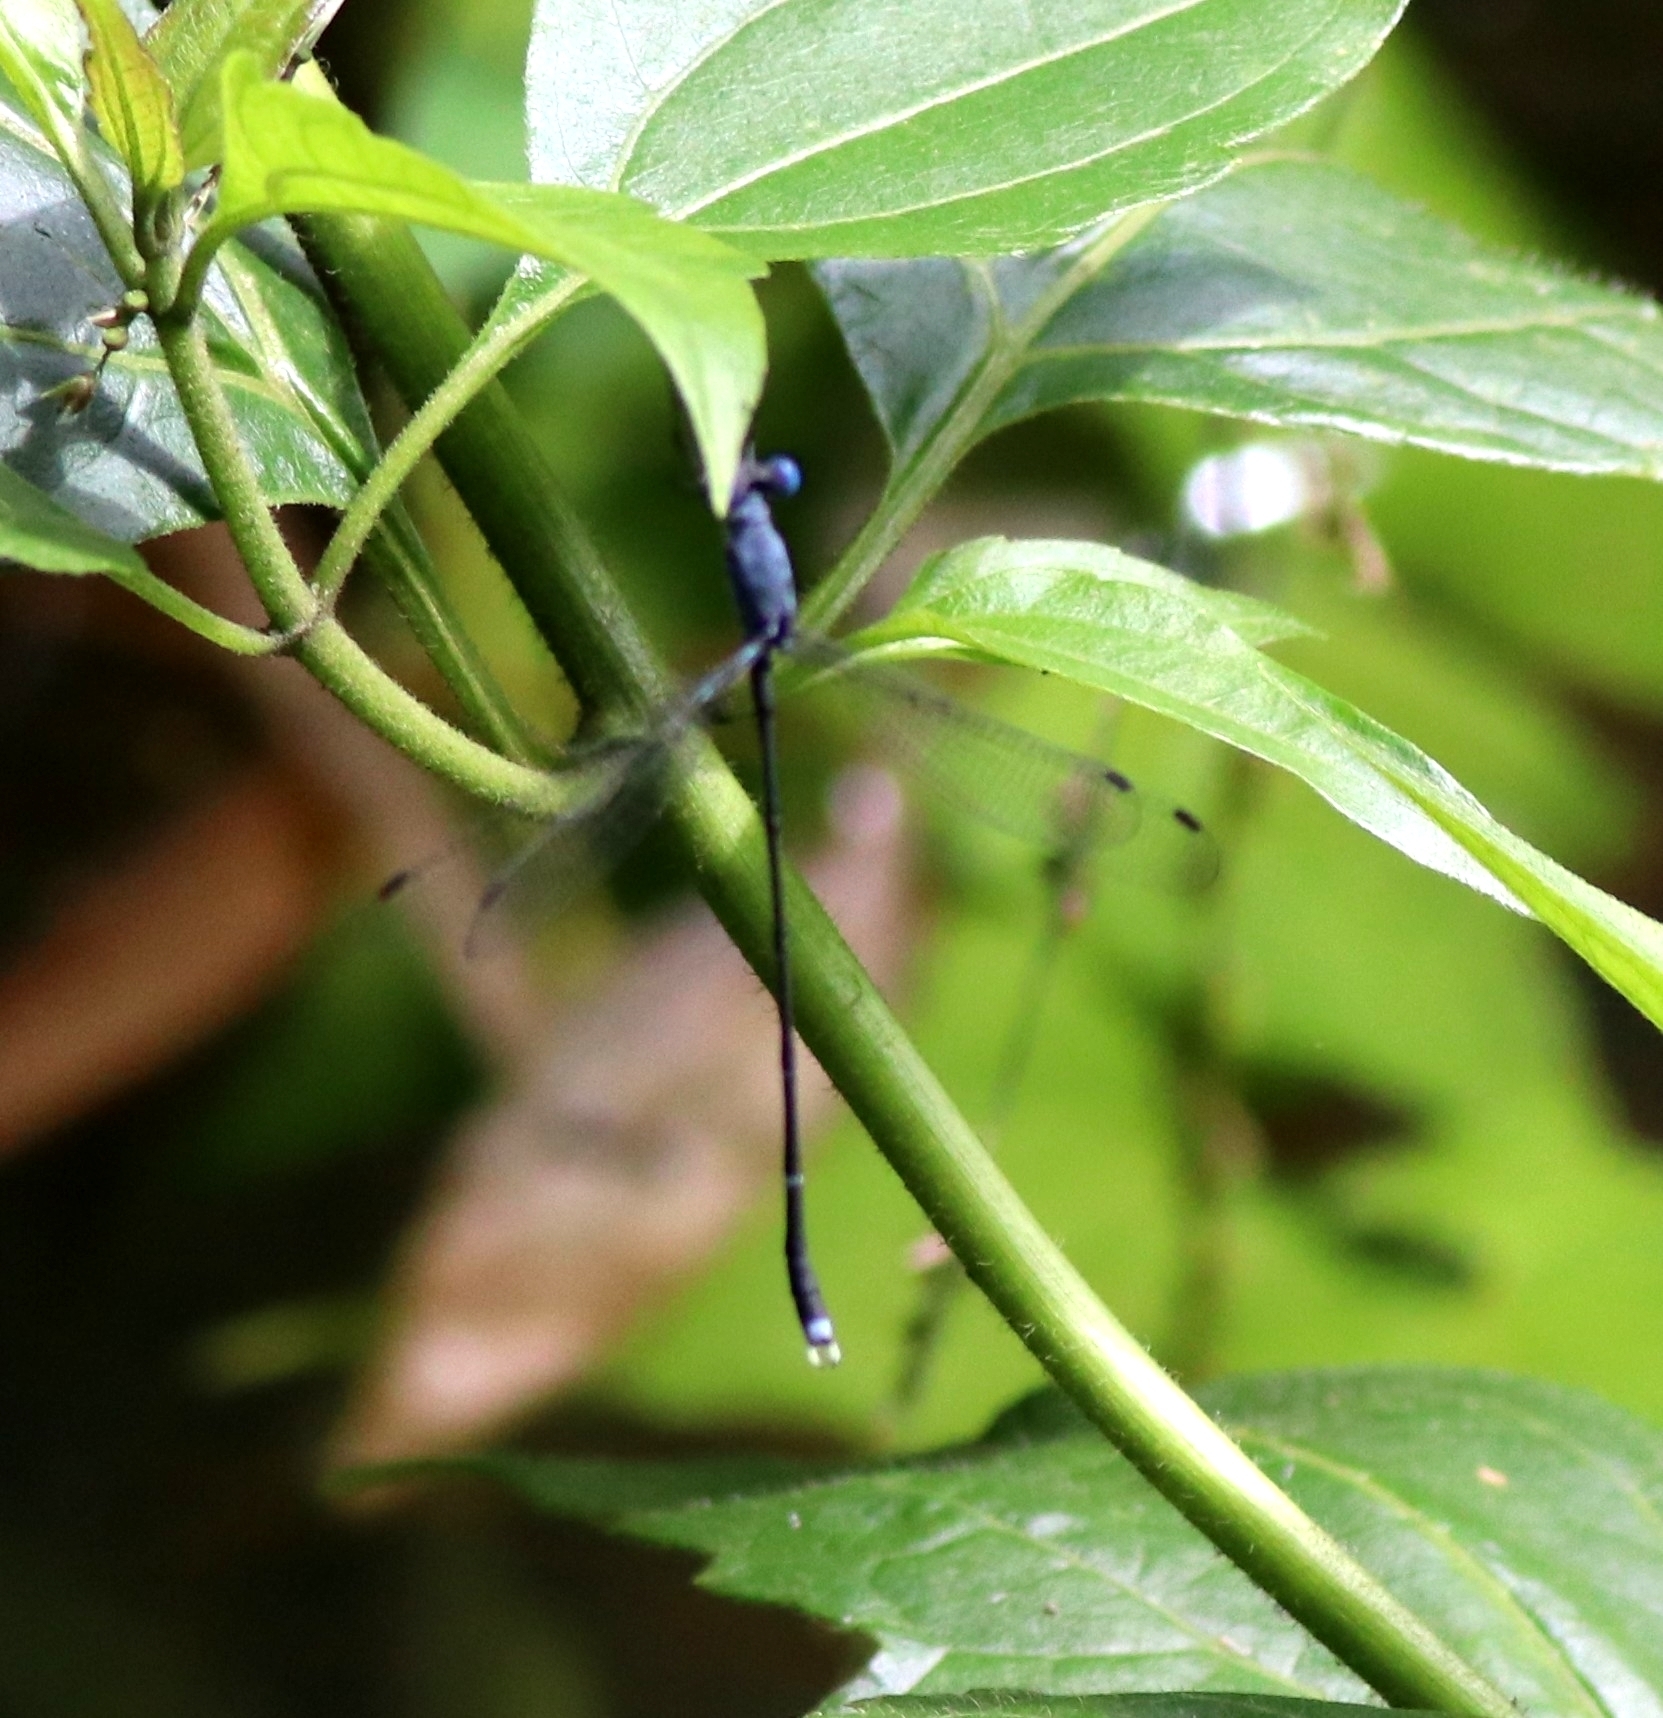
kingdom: Animalia
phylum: Arthropoda
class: Insecta
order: Odonata
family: Lestidae
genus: Lestes
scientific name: Lestes dorothea
